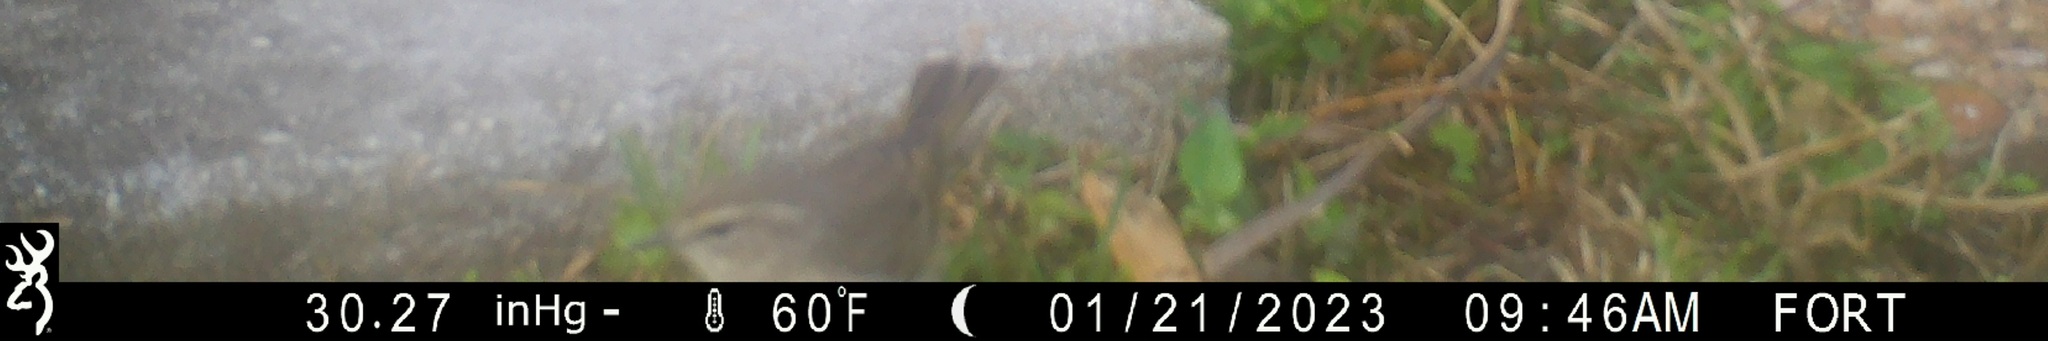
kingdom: Animalia
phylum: Chordata
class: Aves
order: Passeriformes
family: Parulidae
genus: Setophaga
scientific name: Setophaga palmarum
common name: Palm warbler
